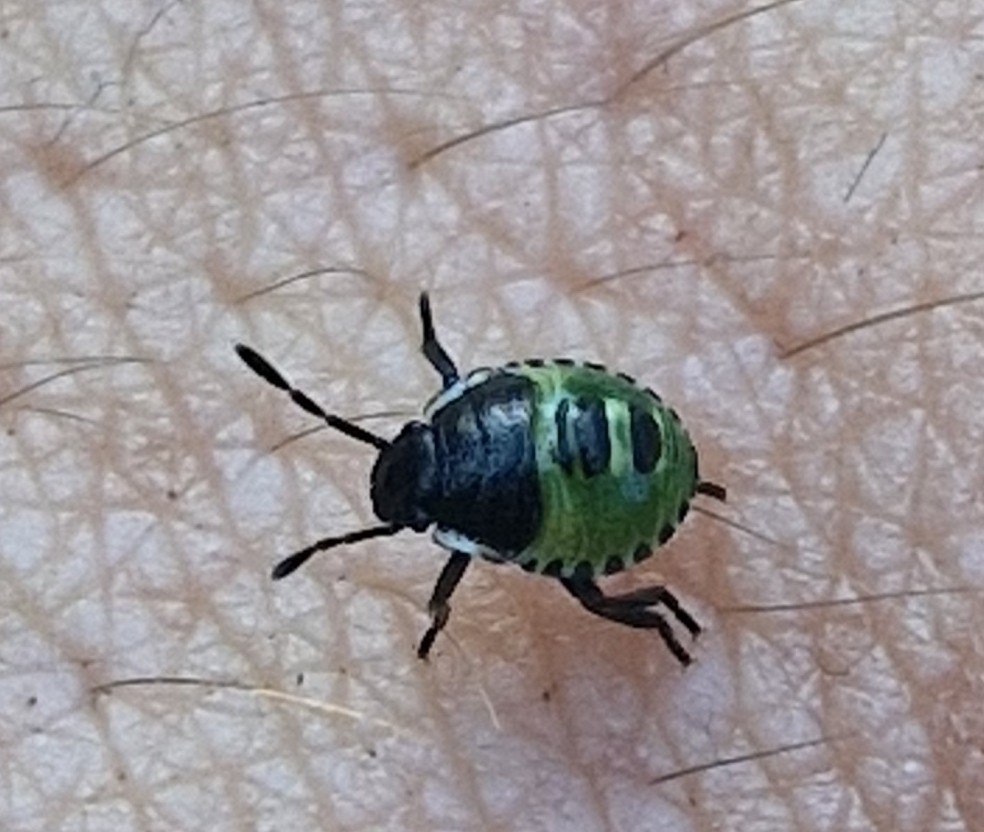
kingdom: Animalia
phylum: Arthropoda
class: Insecta
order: Hemiptera
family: Pentatomidae
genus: Palomena
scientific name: Palomena prasina
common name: Green shieldbug
